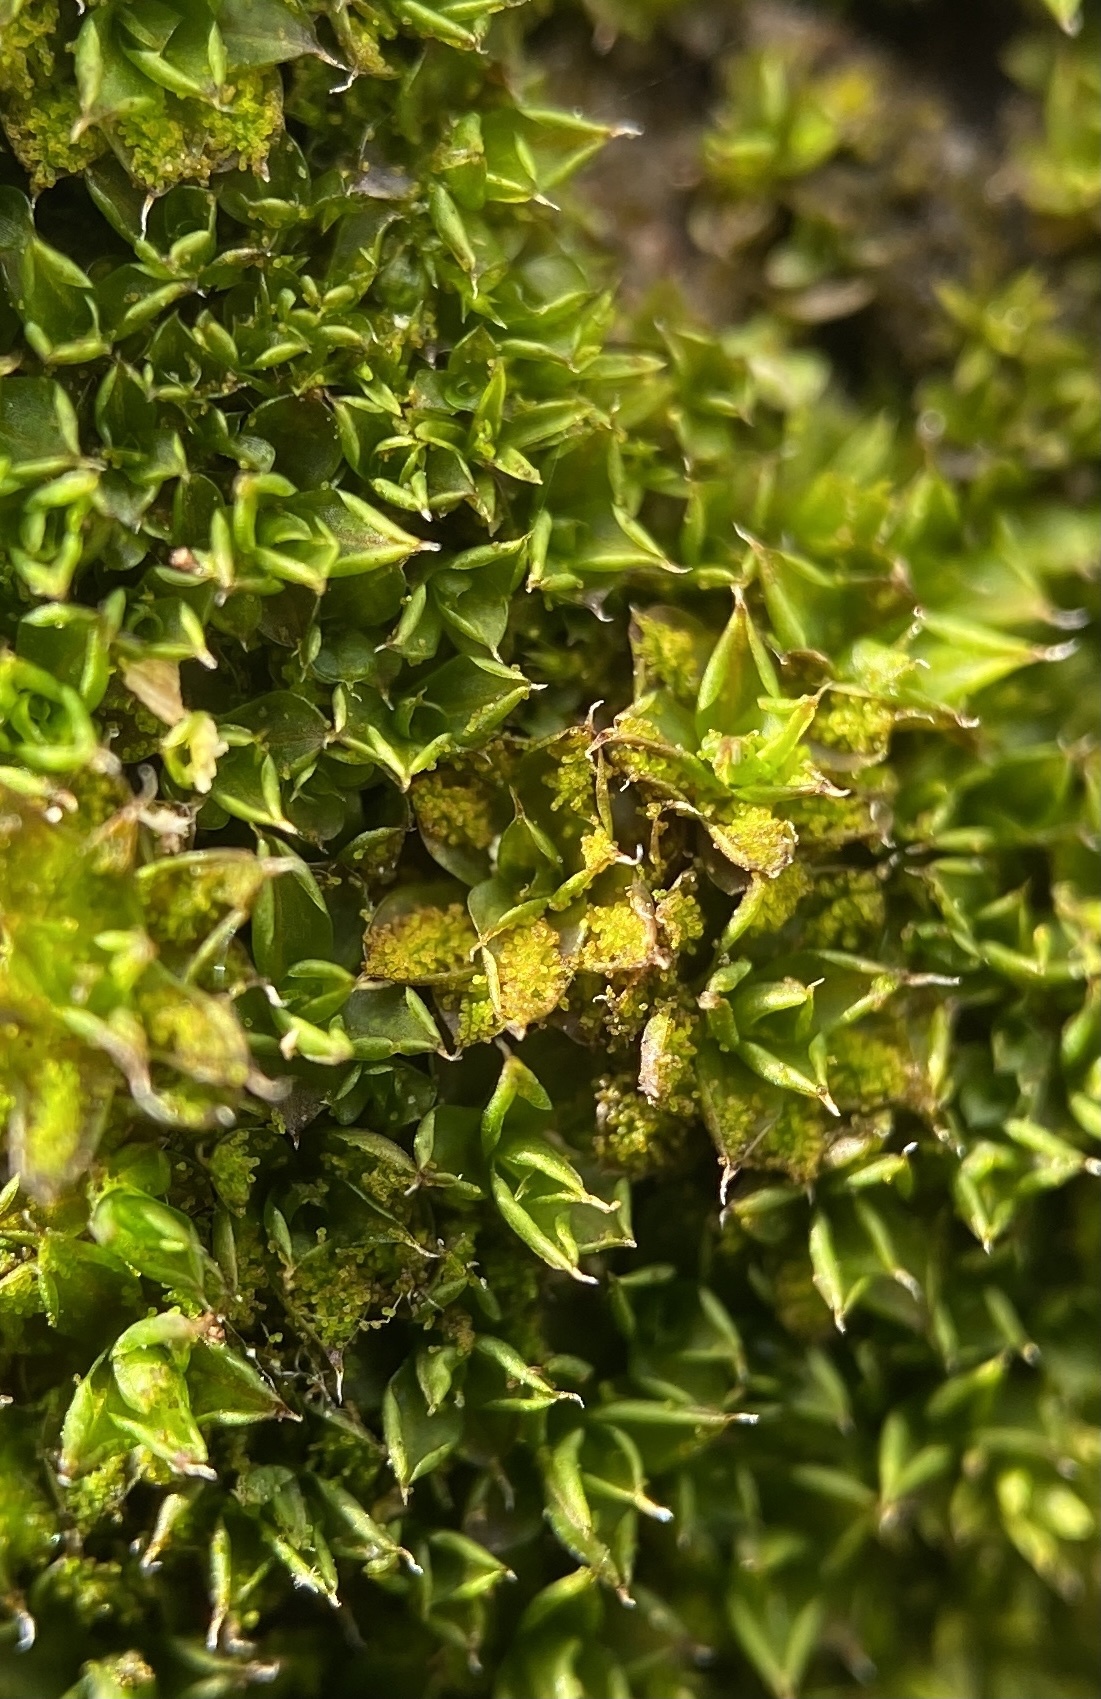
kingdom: Plantae
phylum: Bryophyta
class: Bryopsida
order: Pottiales
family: Pottiaceae
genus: Syntrichia
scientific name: Syntrichia papillosa
